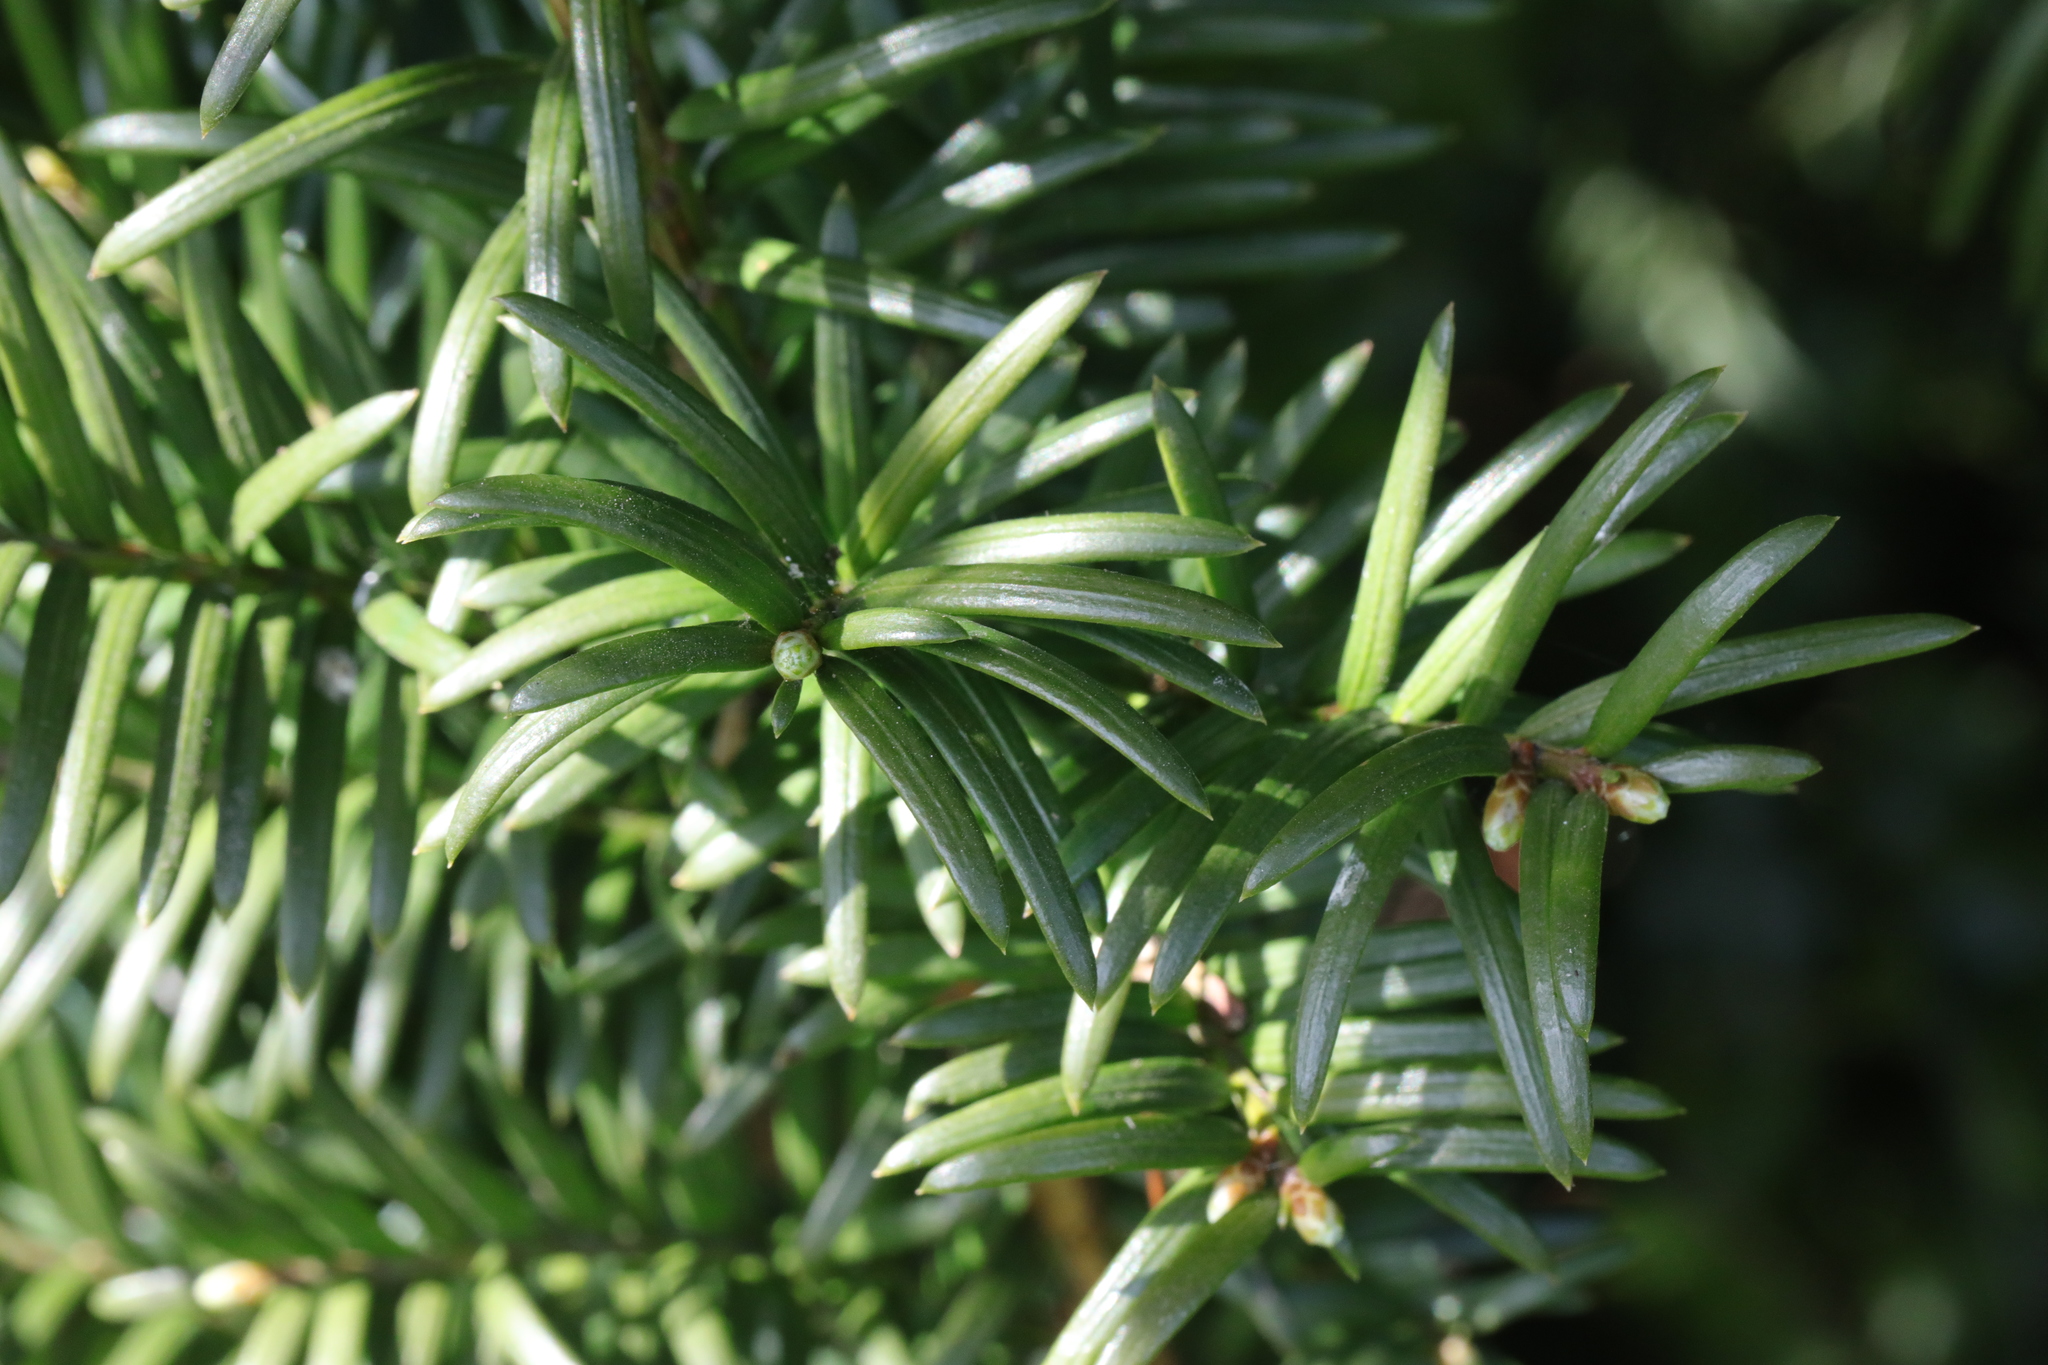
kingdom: Plantae
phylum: Tracheophyta
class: Pinopsida
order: Pinales
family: Taxaceae
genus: Taxus
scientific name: Taxus baccata
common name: Yew
